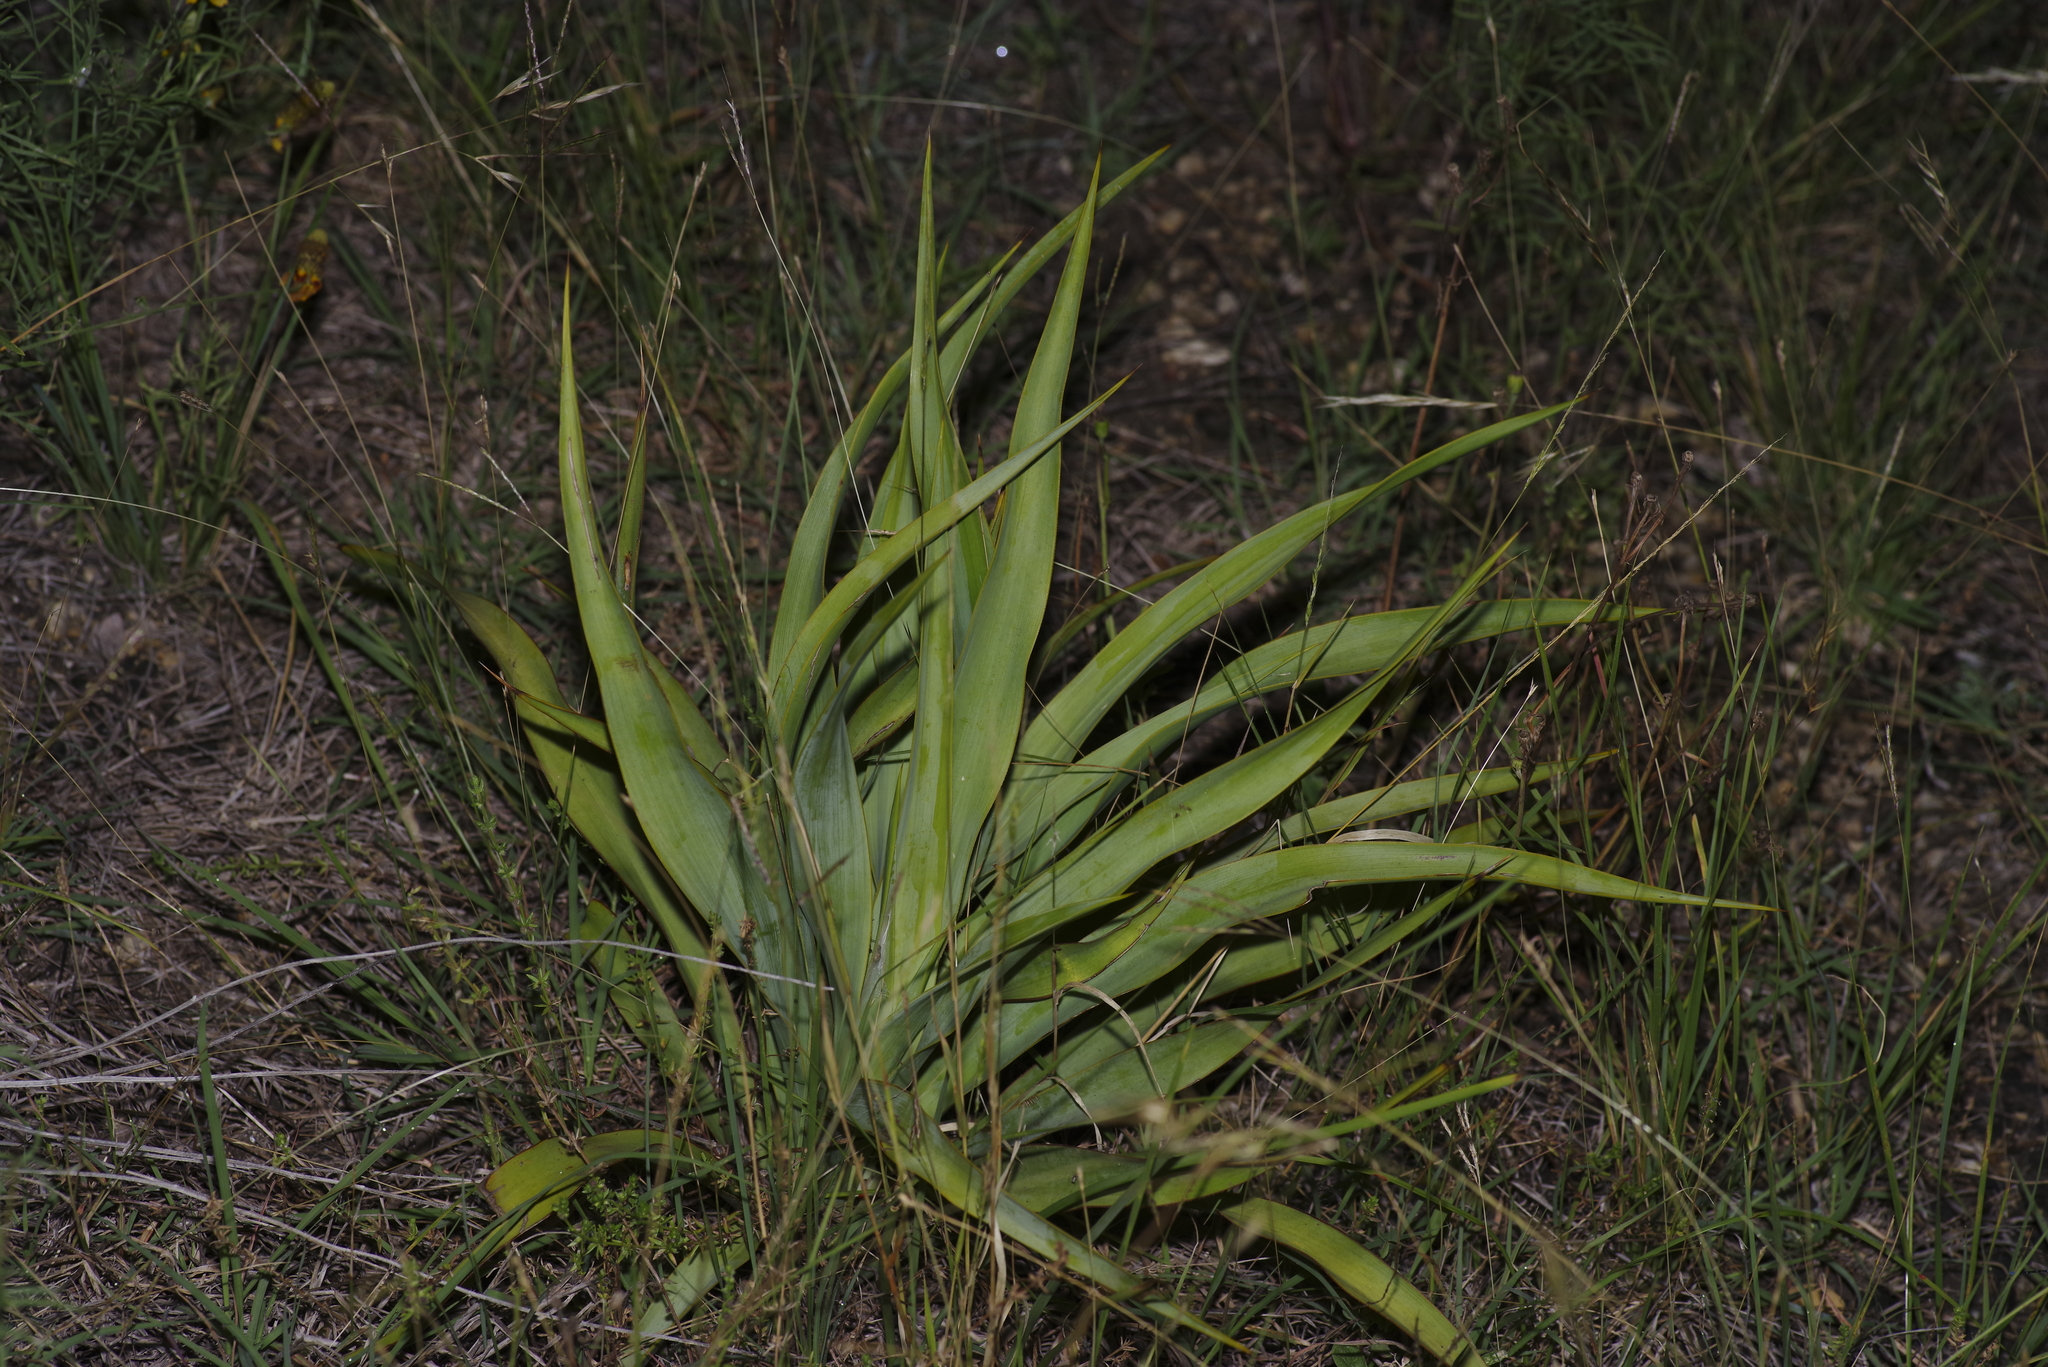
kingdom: Plantae
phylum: Tracheophyta
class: Liliopsida
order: Asparagales
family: Asparagaceae
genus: Yucca
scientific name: Yucca rupicola
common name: Twisted-leaf spanish-dagger
